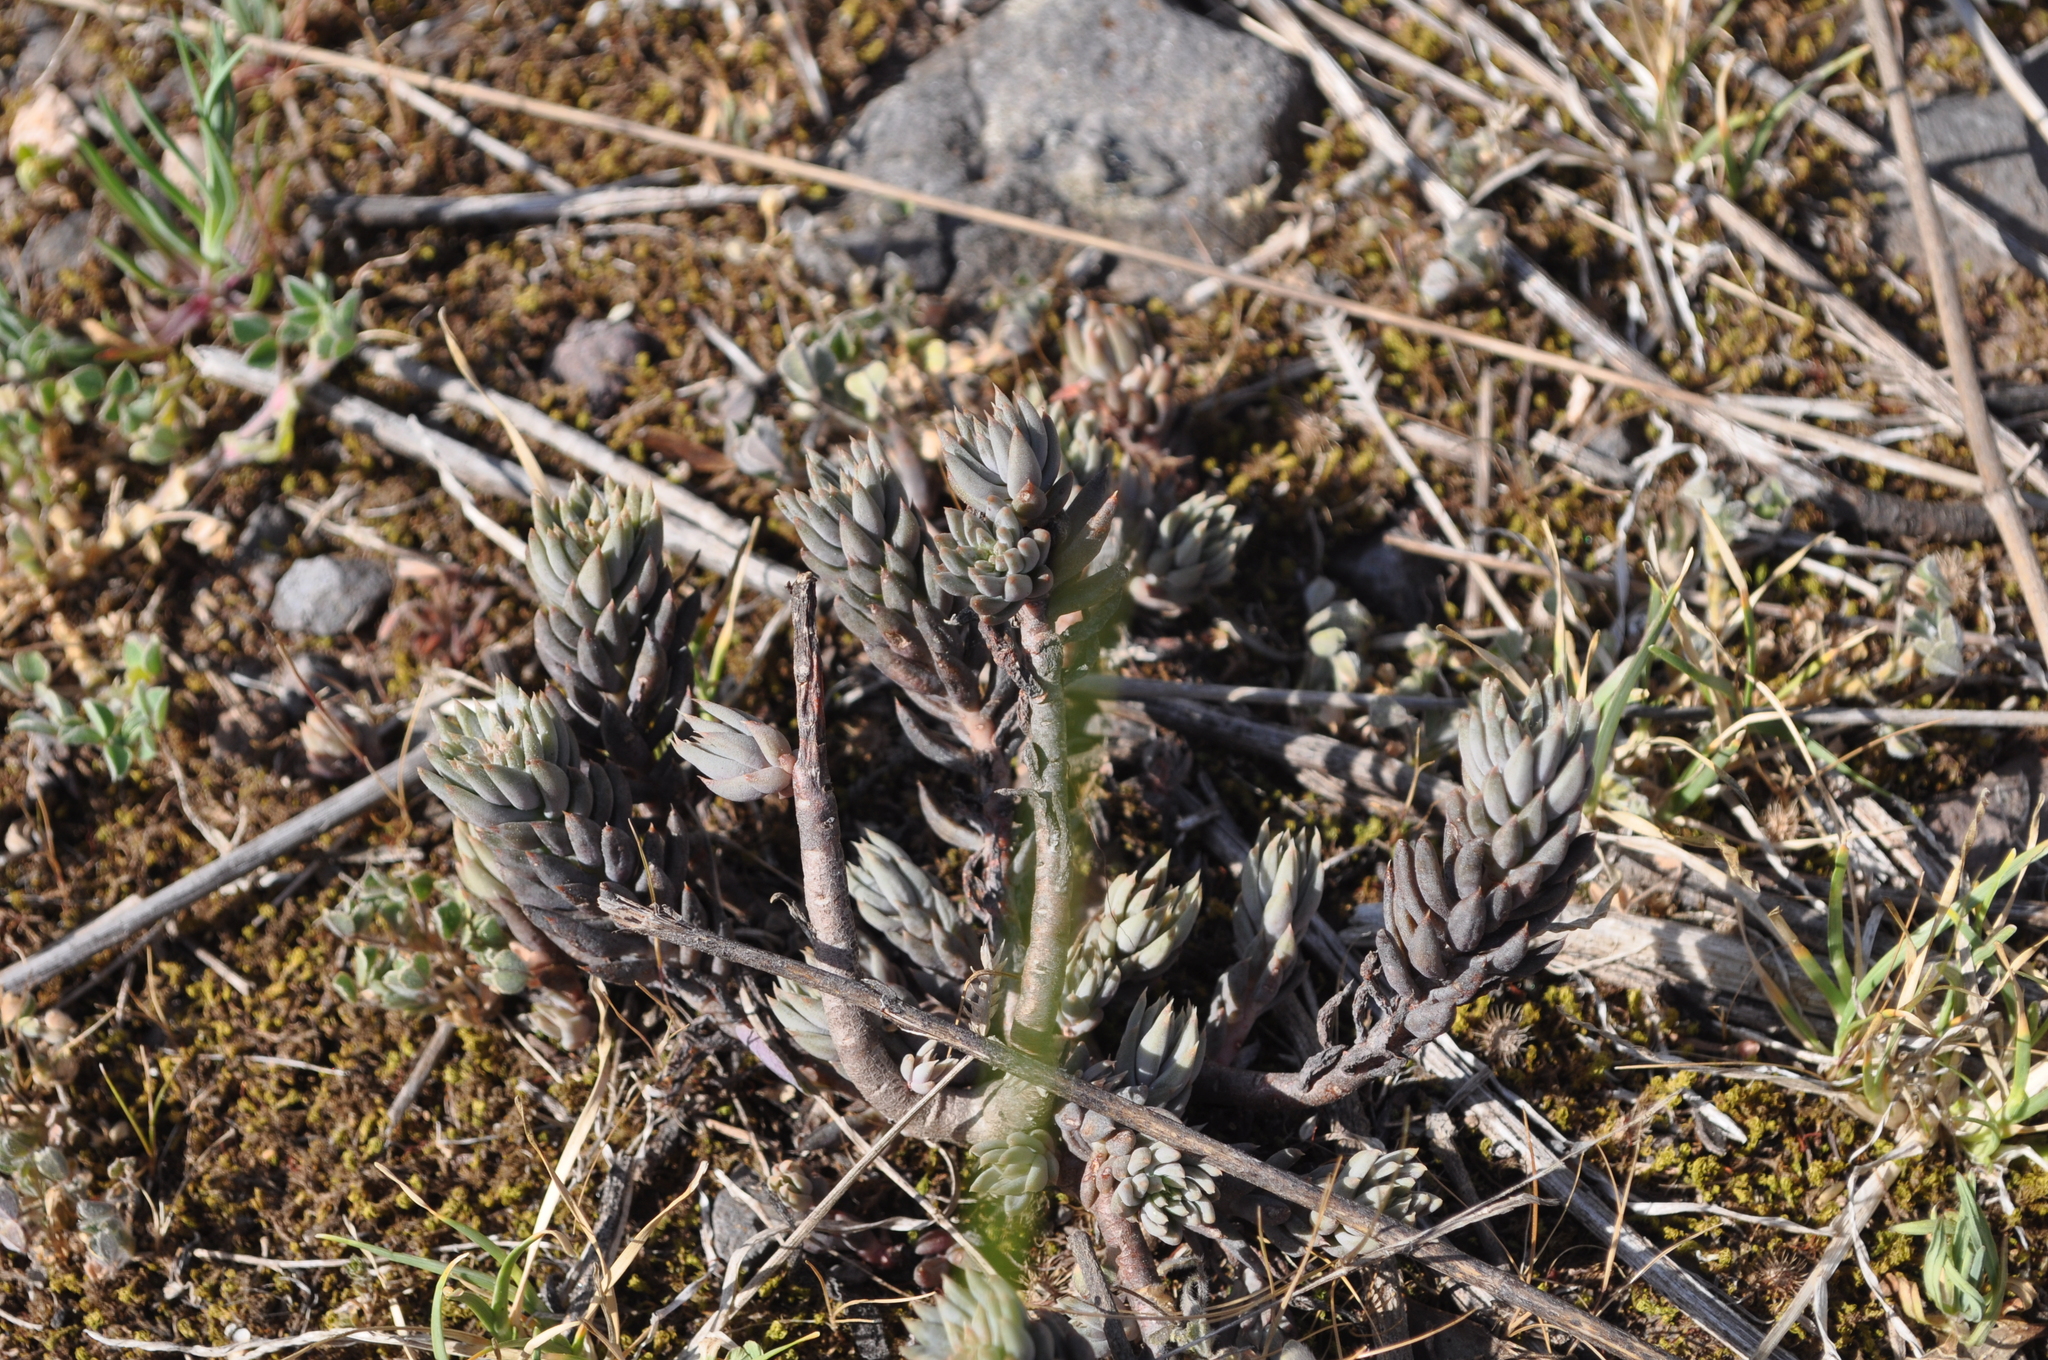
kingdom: Plantae
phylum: Tracheophyta
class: Magnoliopsida
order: Saxifragales
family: Crassulaceae
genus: Petrosedum
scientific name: Petrosedum sediforme
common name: Pale stonecrop
